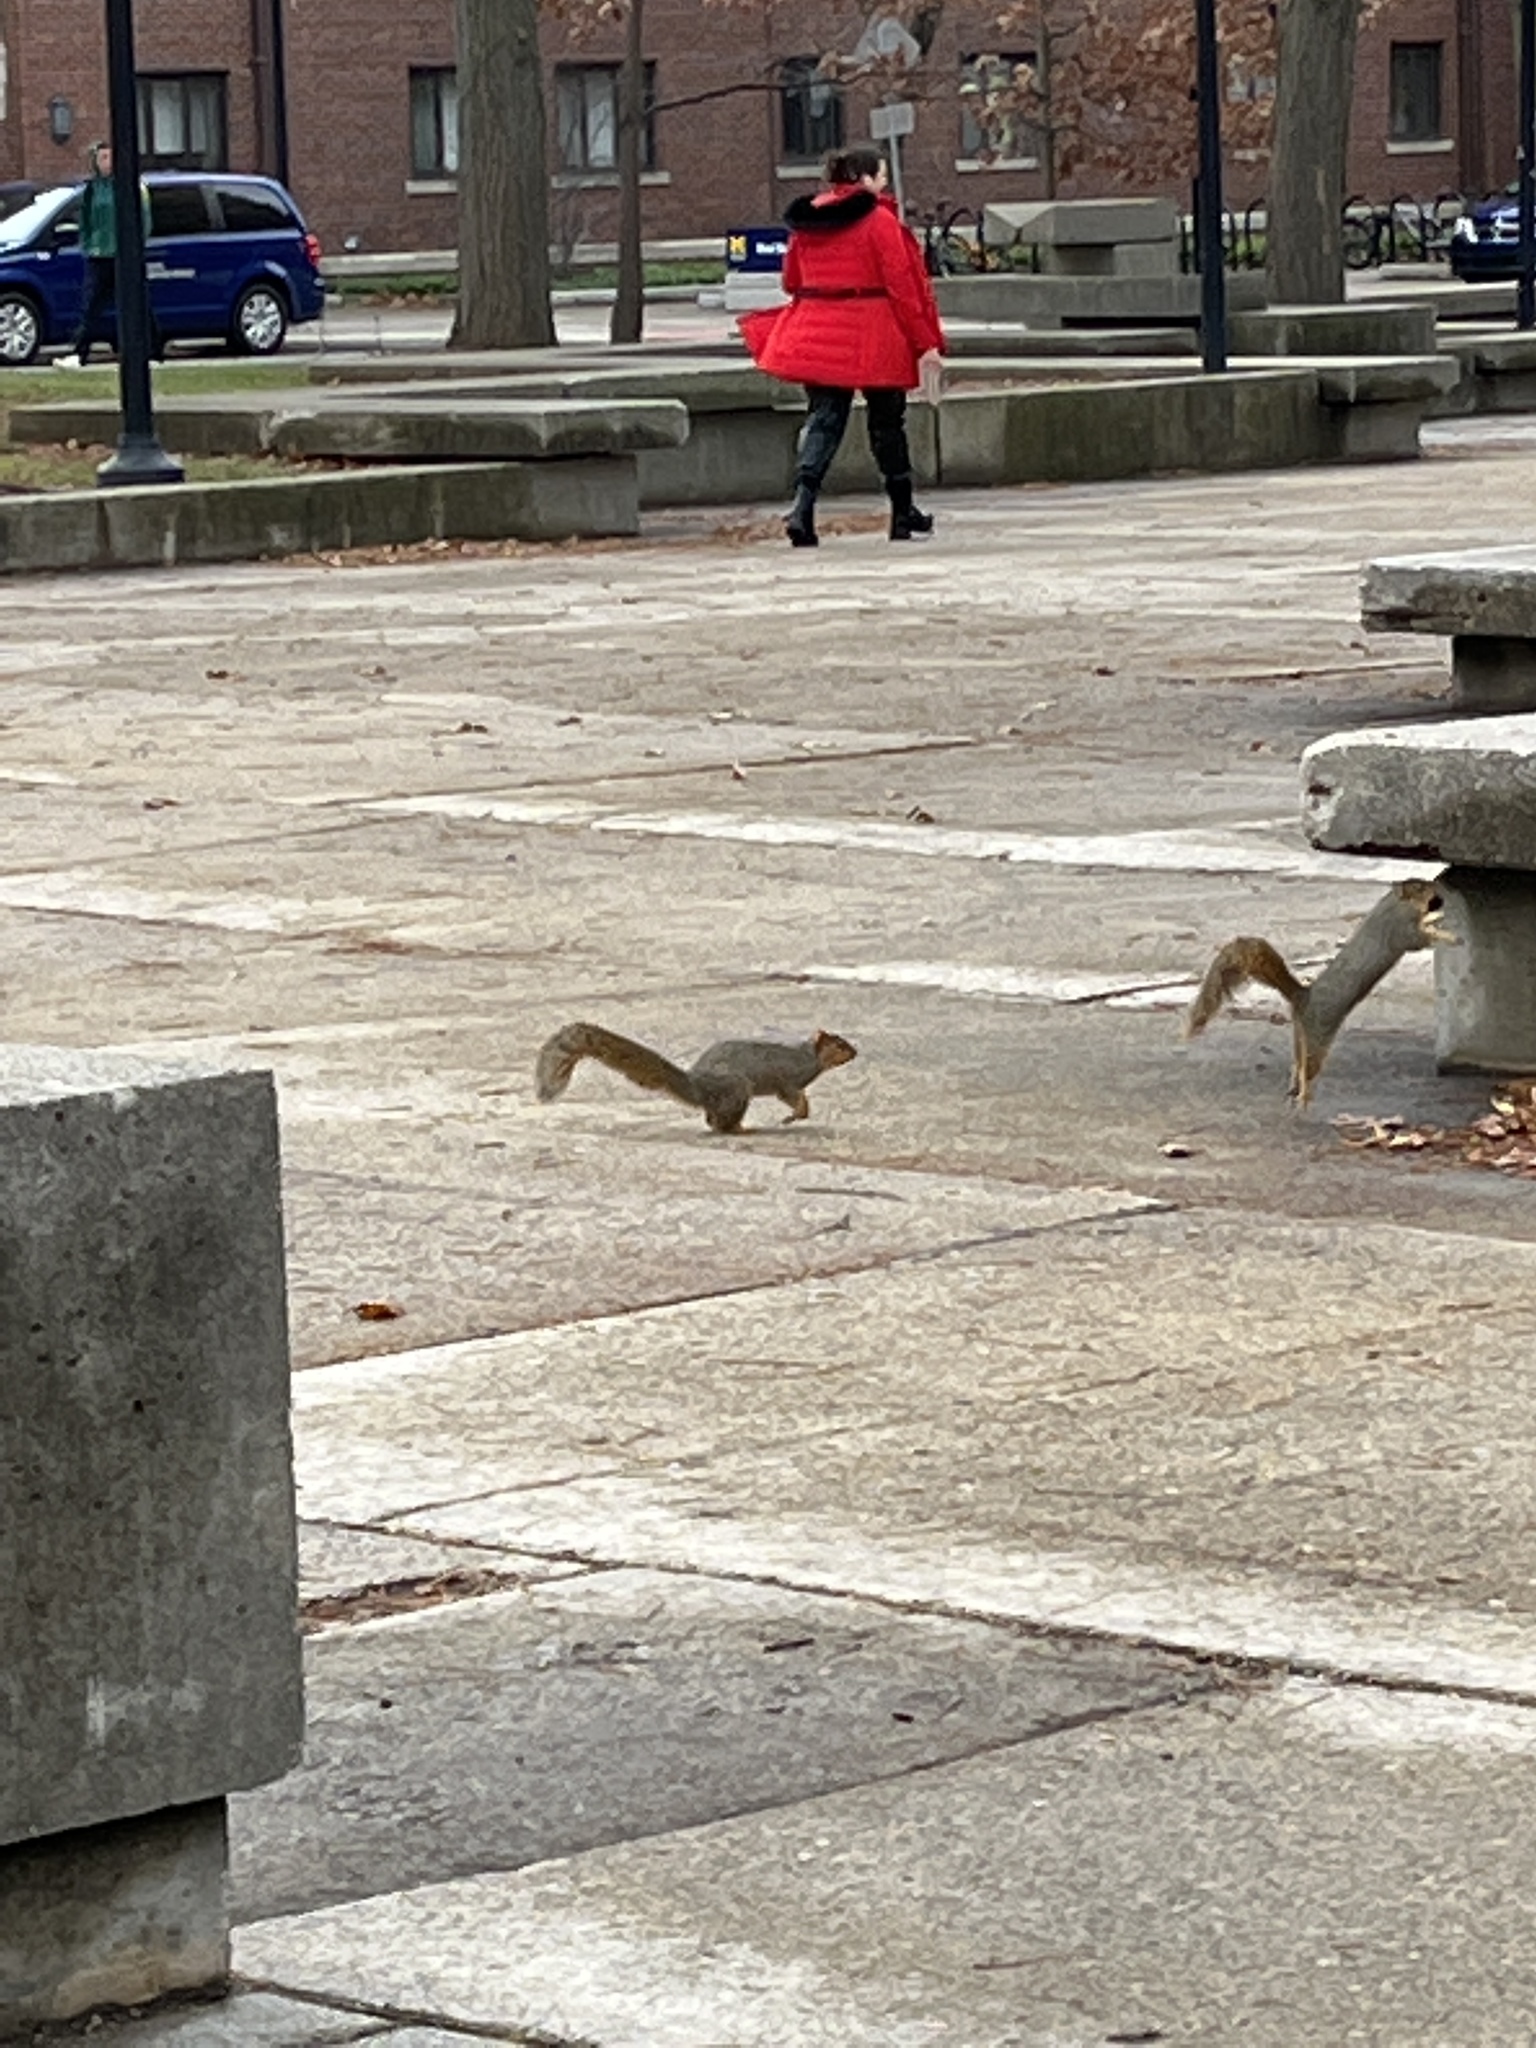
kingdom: Animalia
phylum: Chordata
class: Mammalia
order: Rodentia
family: Sciuridae
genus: Sciurus
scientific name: Sciurus niger
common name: Fox squirrel
